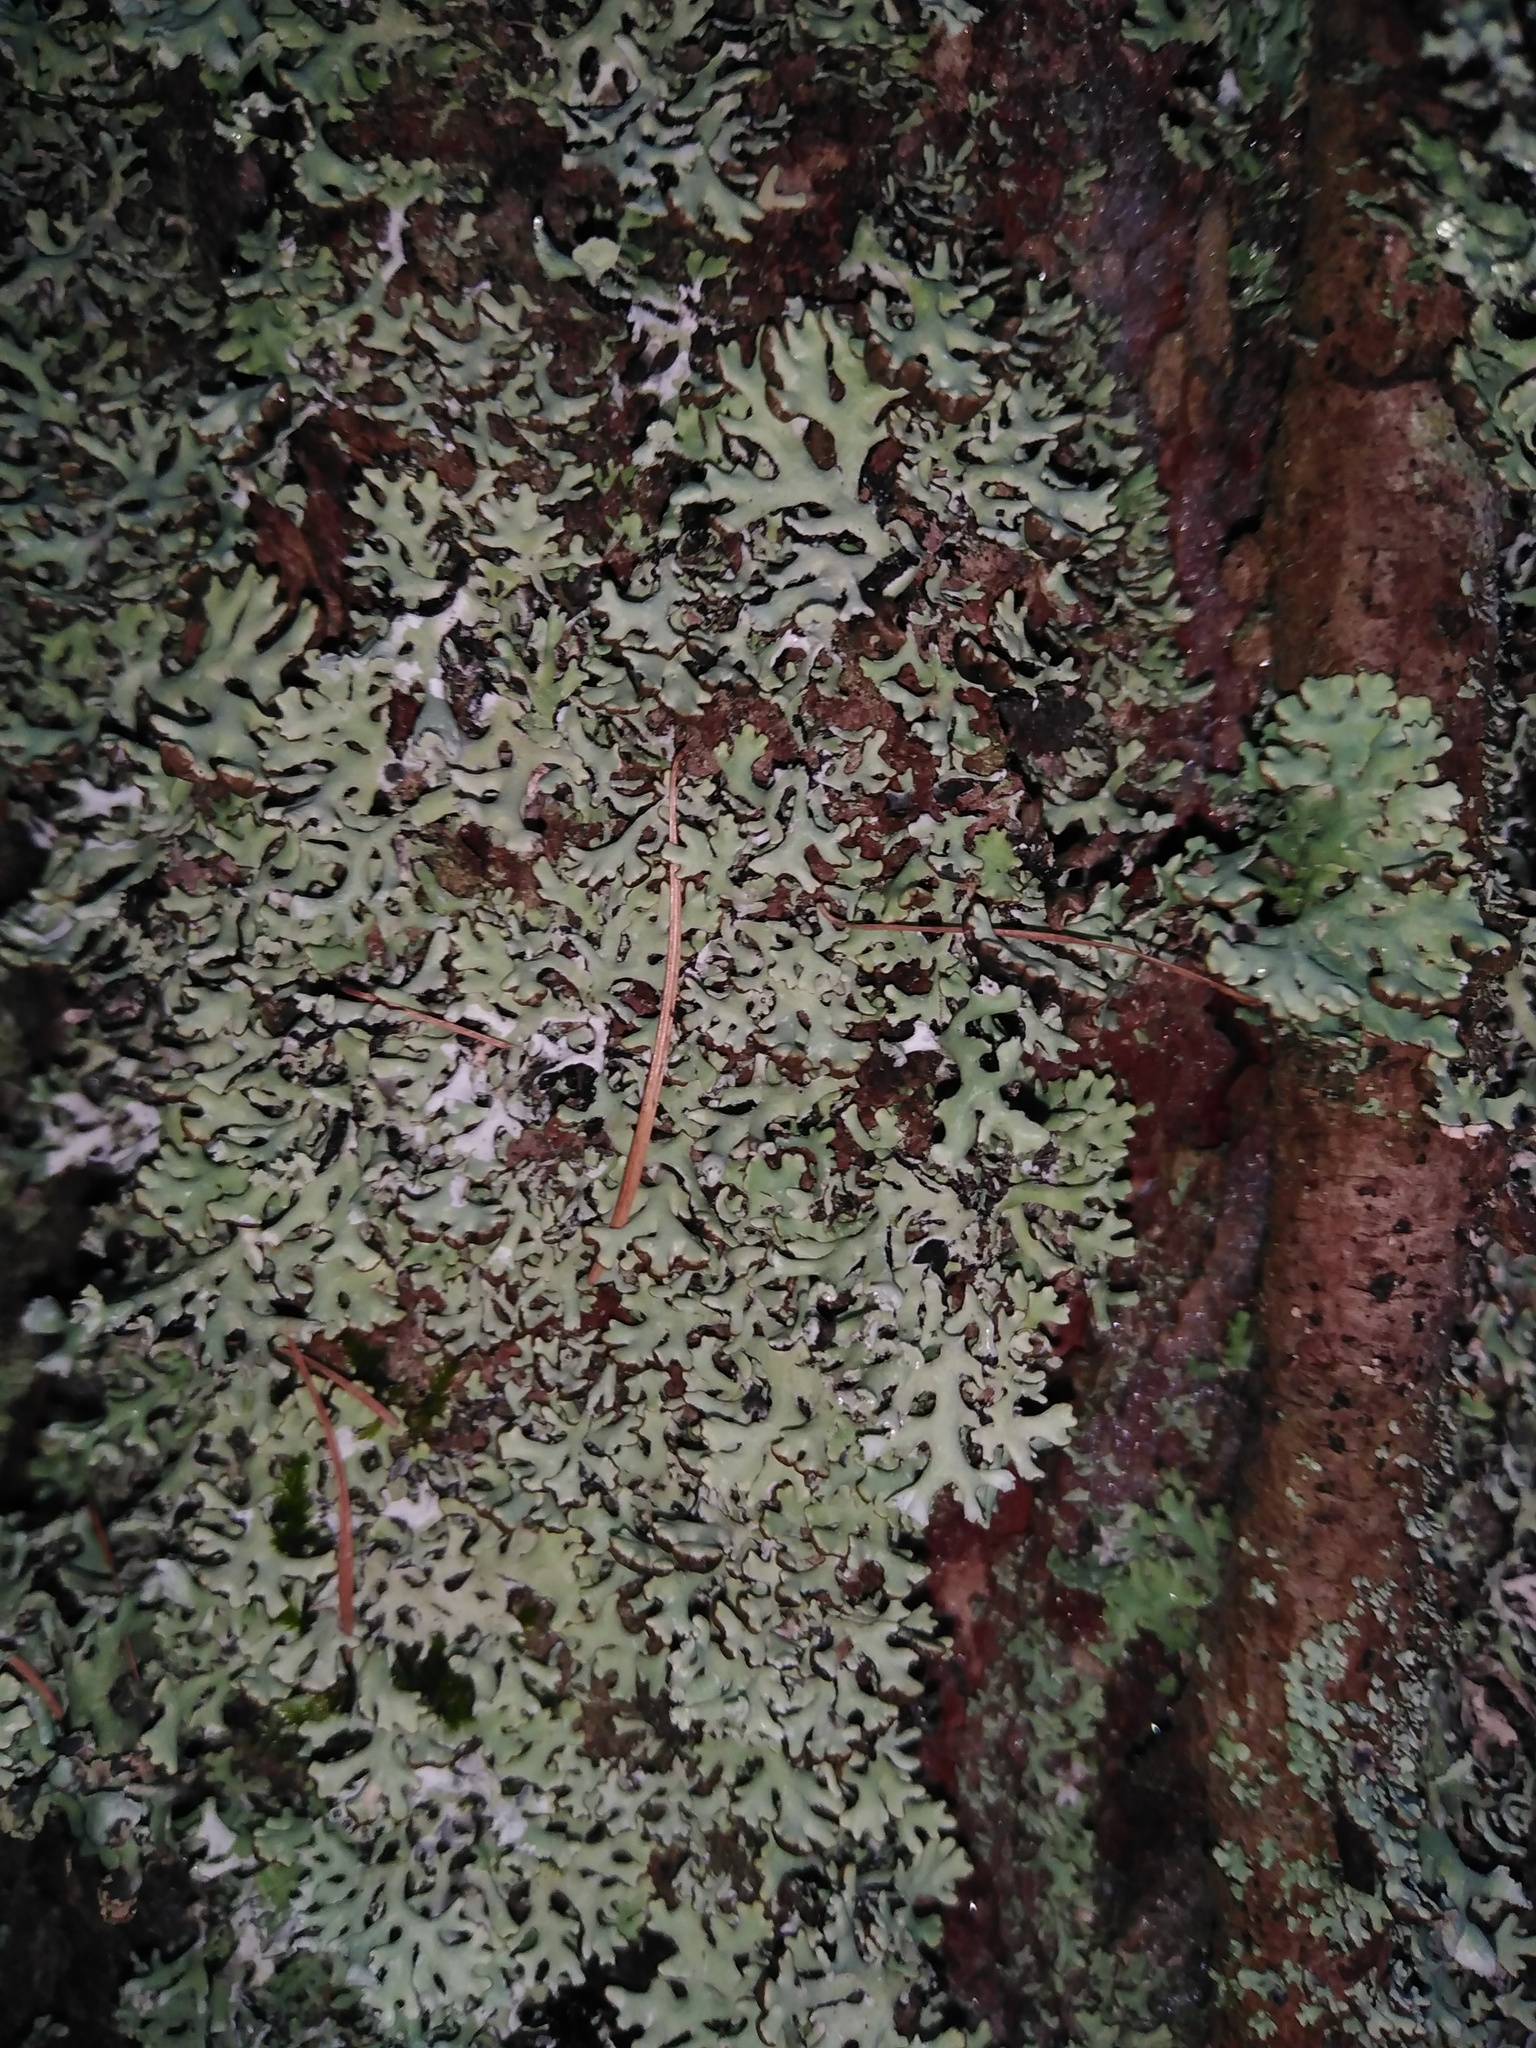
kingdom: Fungi
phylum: Ascomycota
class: Lecanoromycetes
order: Lecanorales
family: Parmeliaceae
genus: Hypogymnia
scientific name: Hypogymnia physodes
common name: Dark crottle
